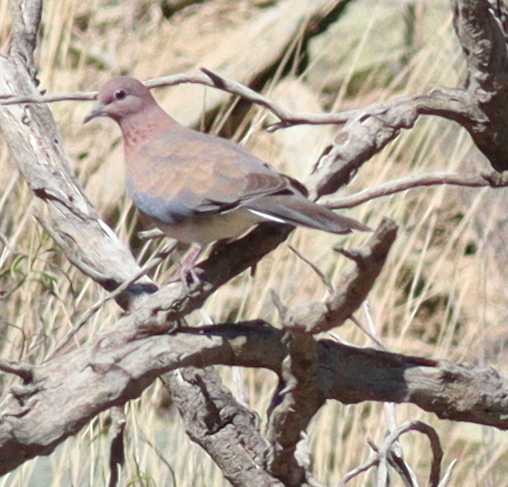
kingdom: Animalia
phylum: Chordata
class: Aves
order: Columbiformes
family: Columbidae
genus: Spilopelia
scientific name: Spilopelia senegalensis
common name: Laughing dove
